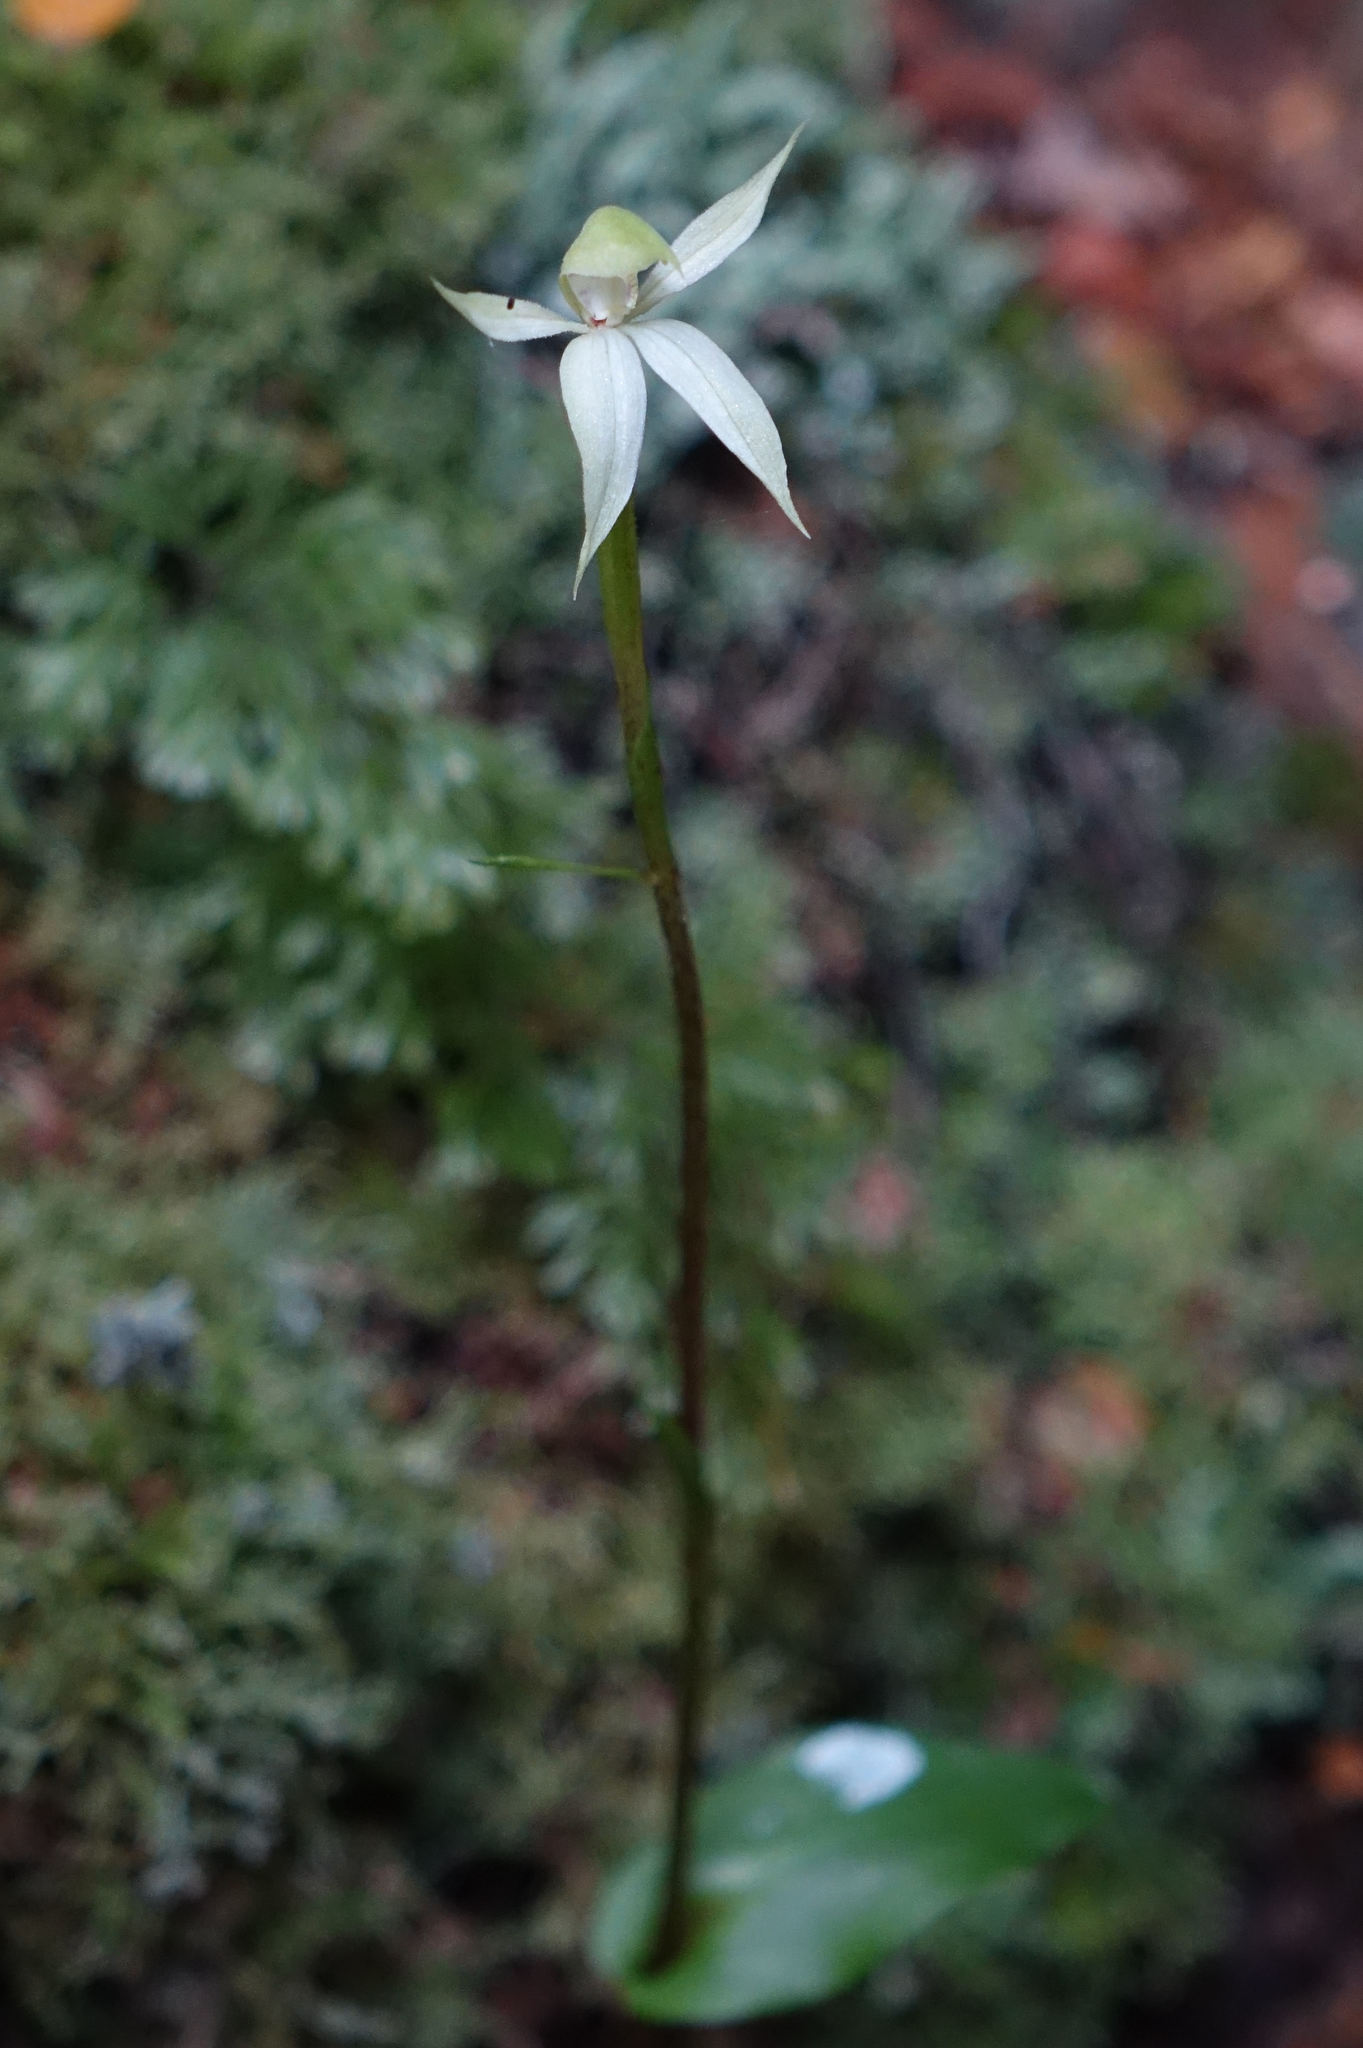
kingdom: Plantae
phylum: Tracheophyta
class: Liliopsida
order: Asparagales
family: Orchidaceae
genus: Adenochilus
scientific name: Adenochilus gracilis
